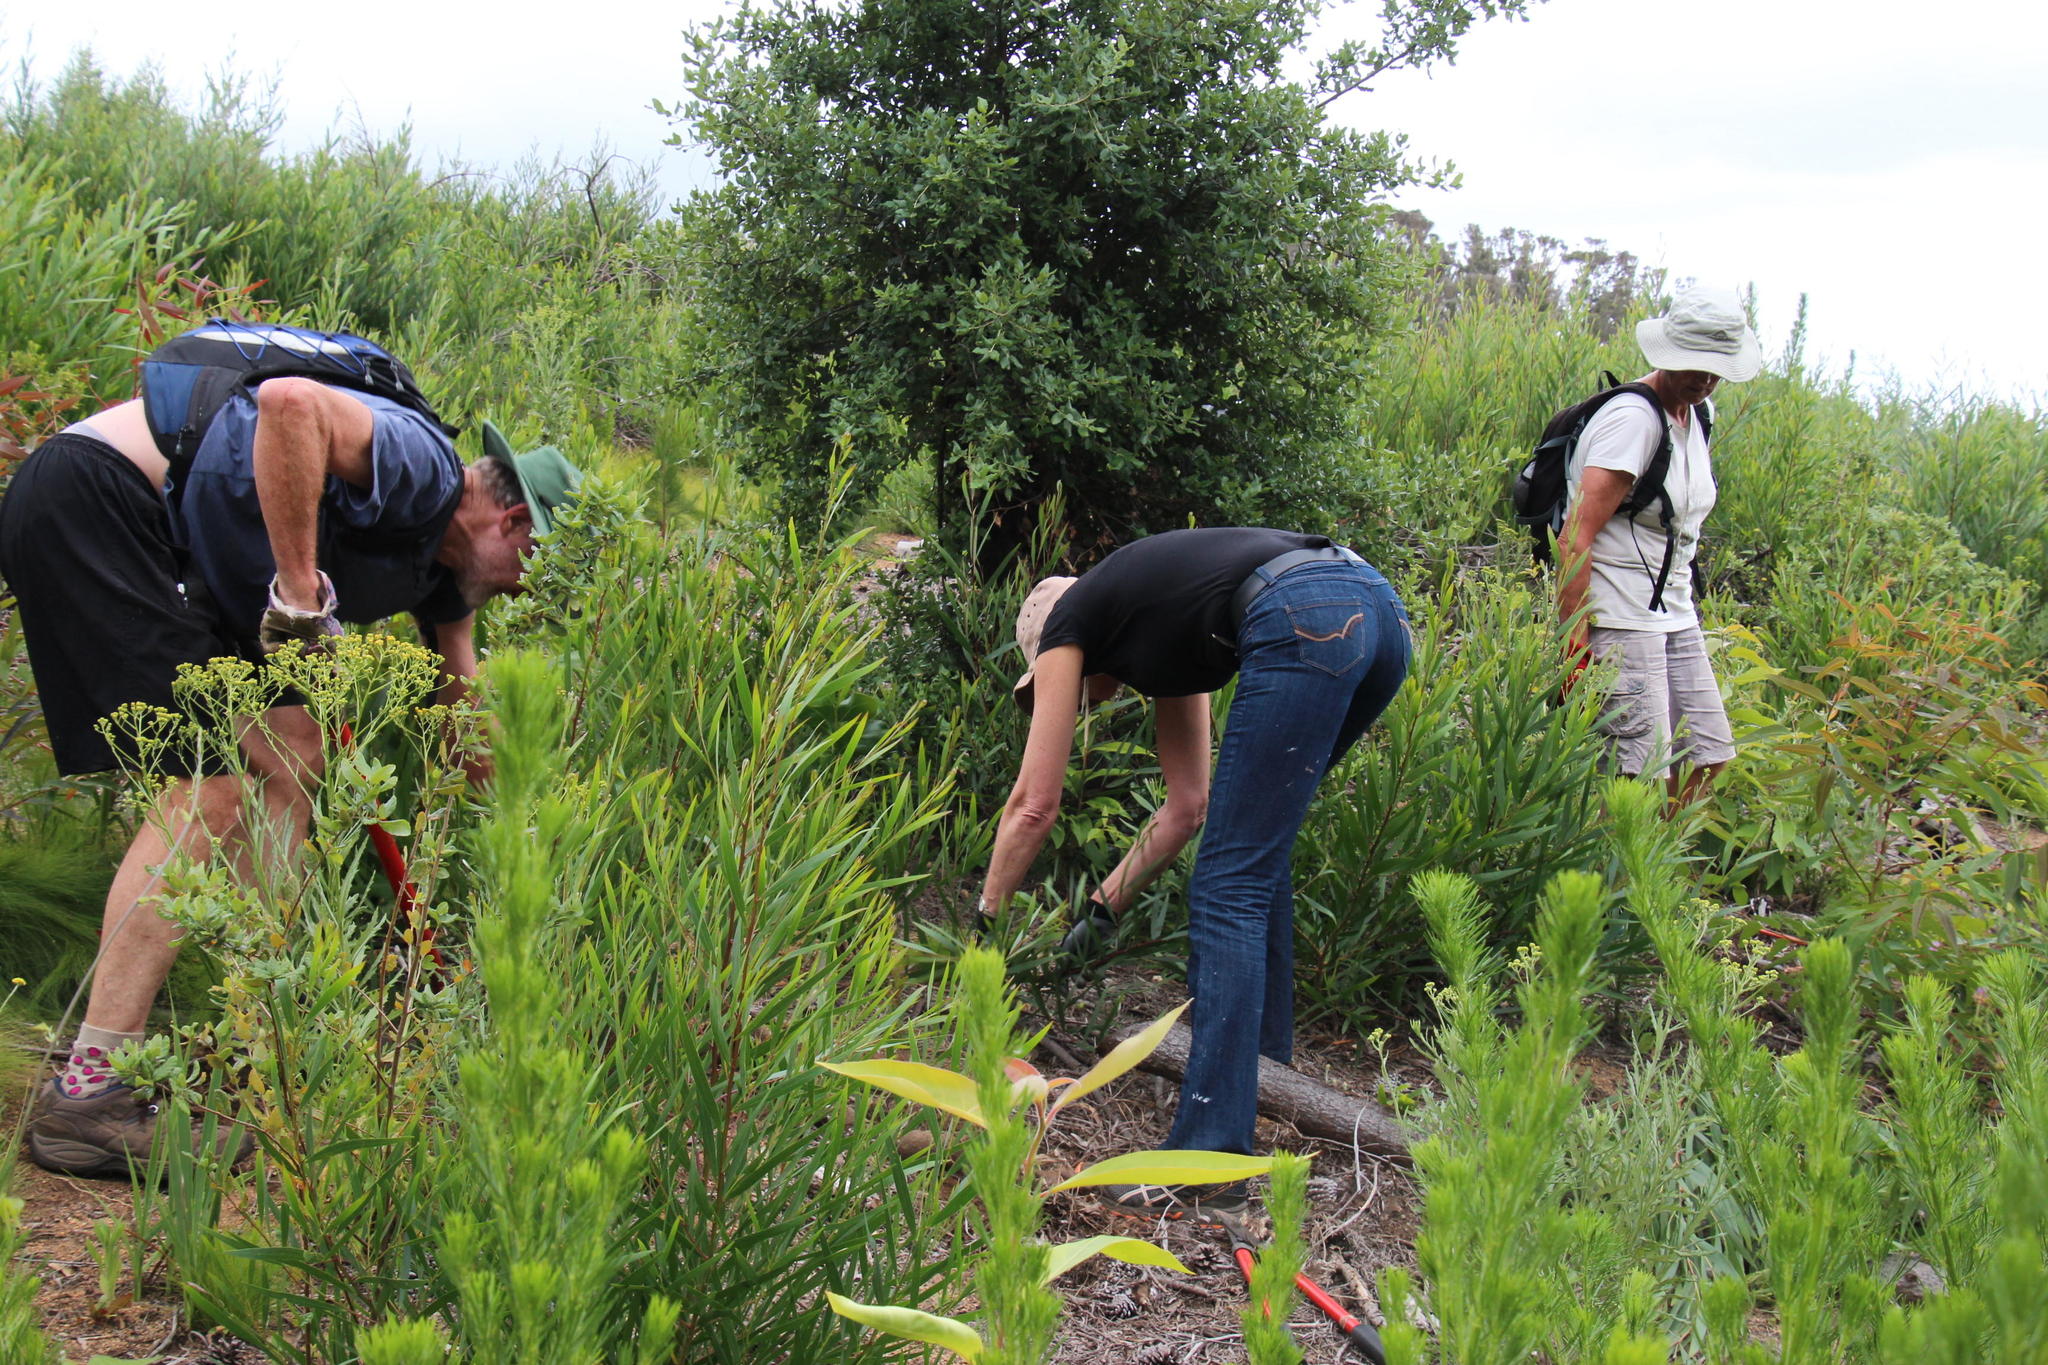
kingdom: Plantae
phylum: Tracheophyta
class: Magnoliopsida
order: Fabales
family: Fabaceae
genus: Acacia
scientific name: Acacia longifolia
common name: Sydney golden wattle
